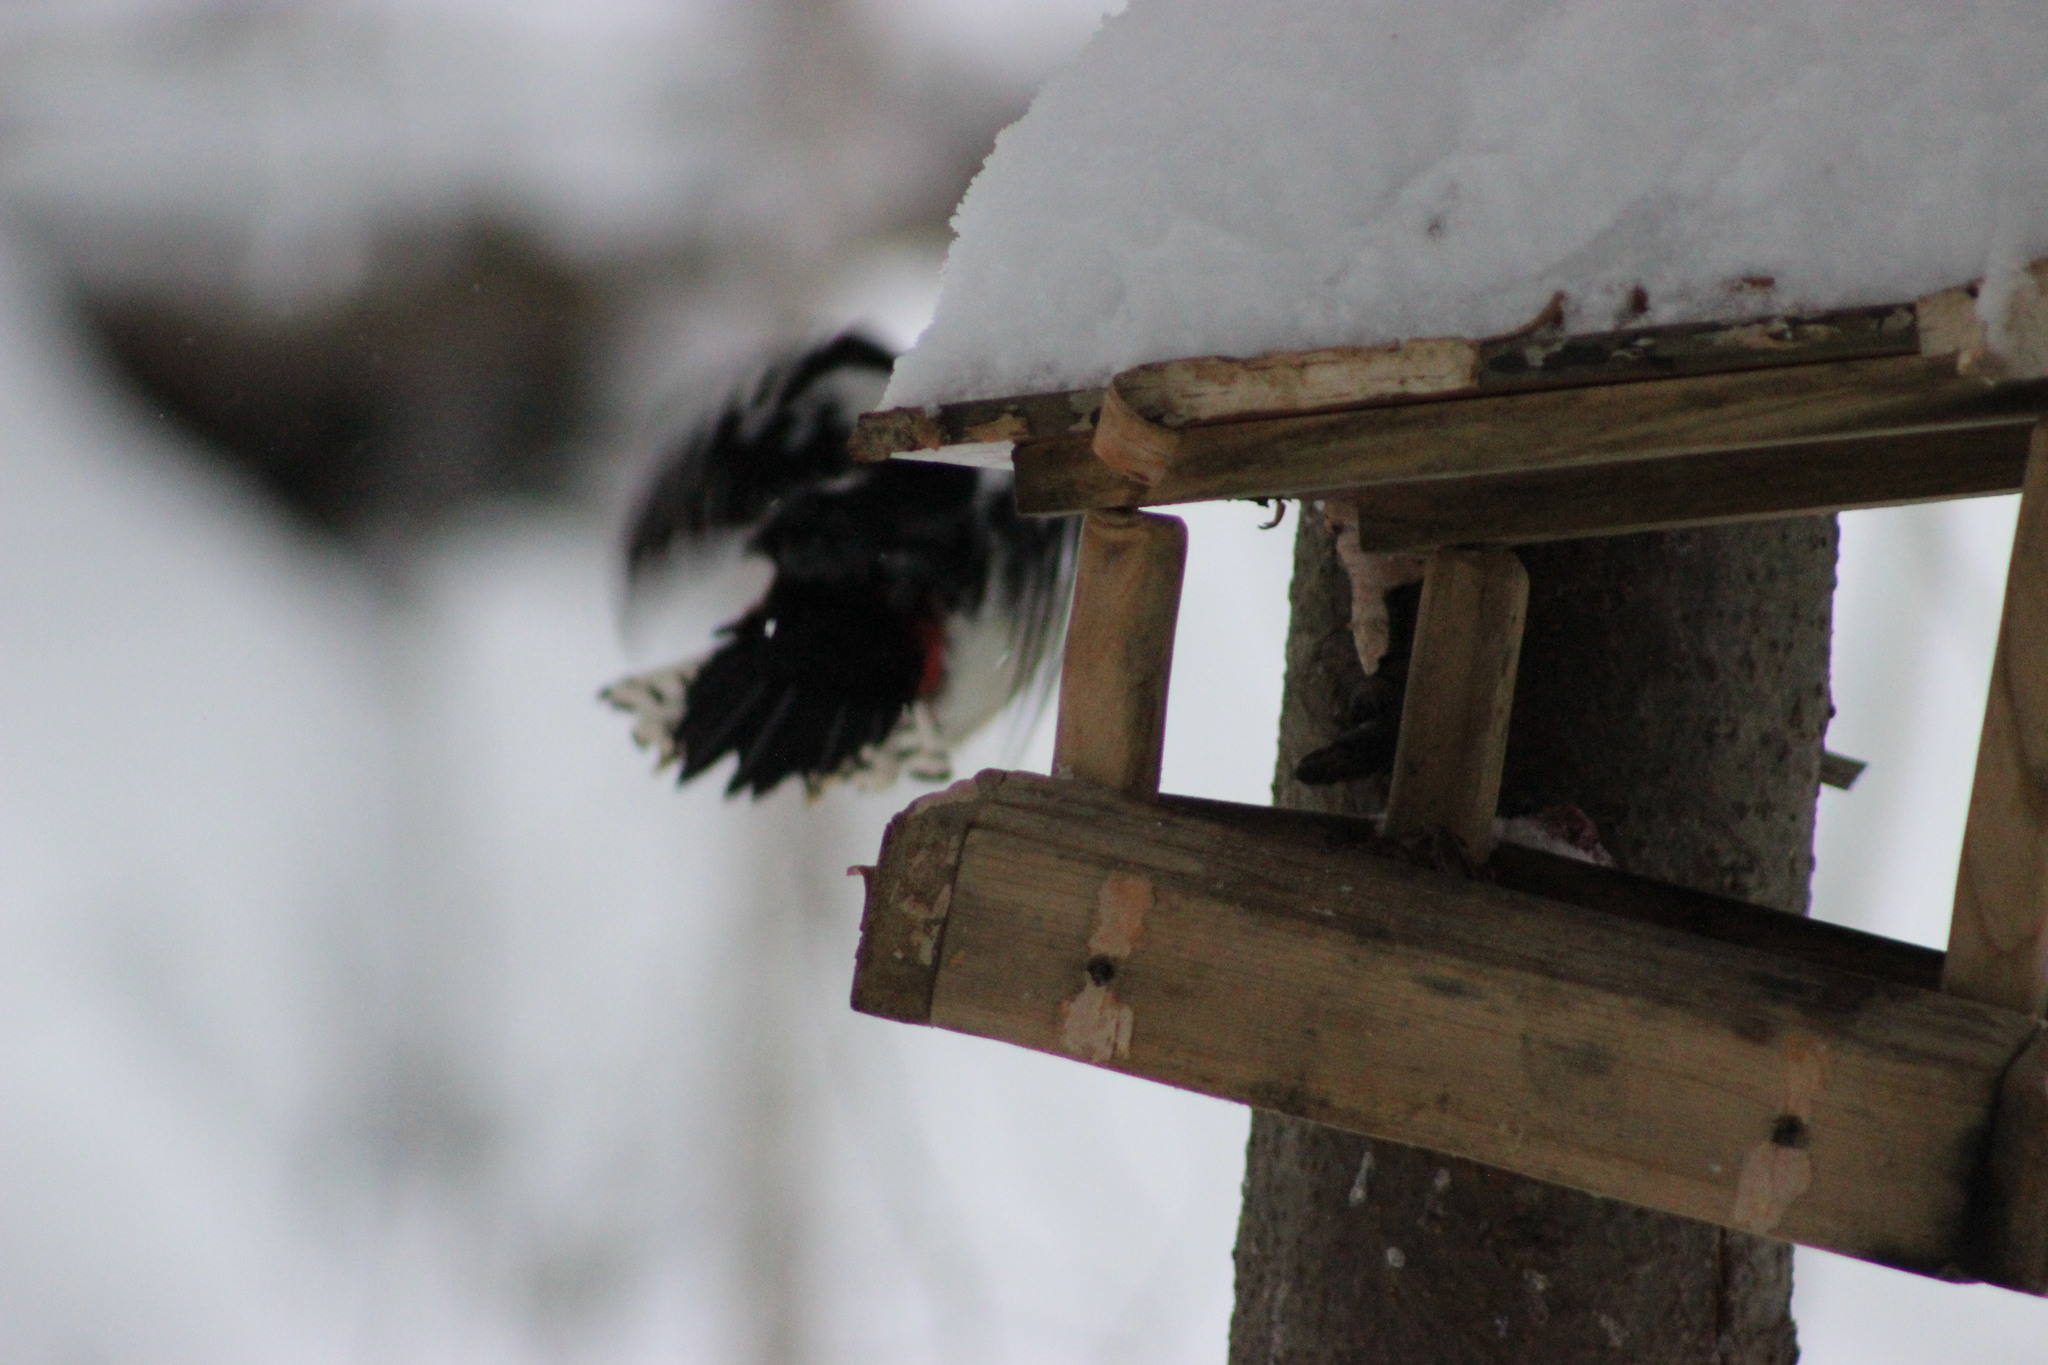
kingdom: Animalia
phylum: Chordata
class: Aves
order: Piciformes
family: Picidae
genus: Dendrocopos
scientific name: Dendrocopos major
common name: Great spotted woodpecker
